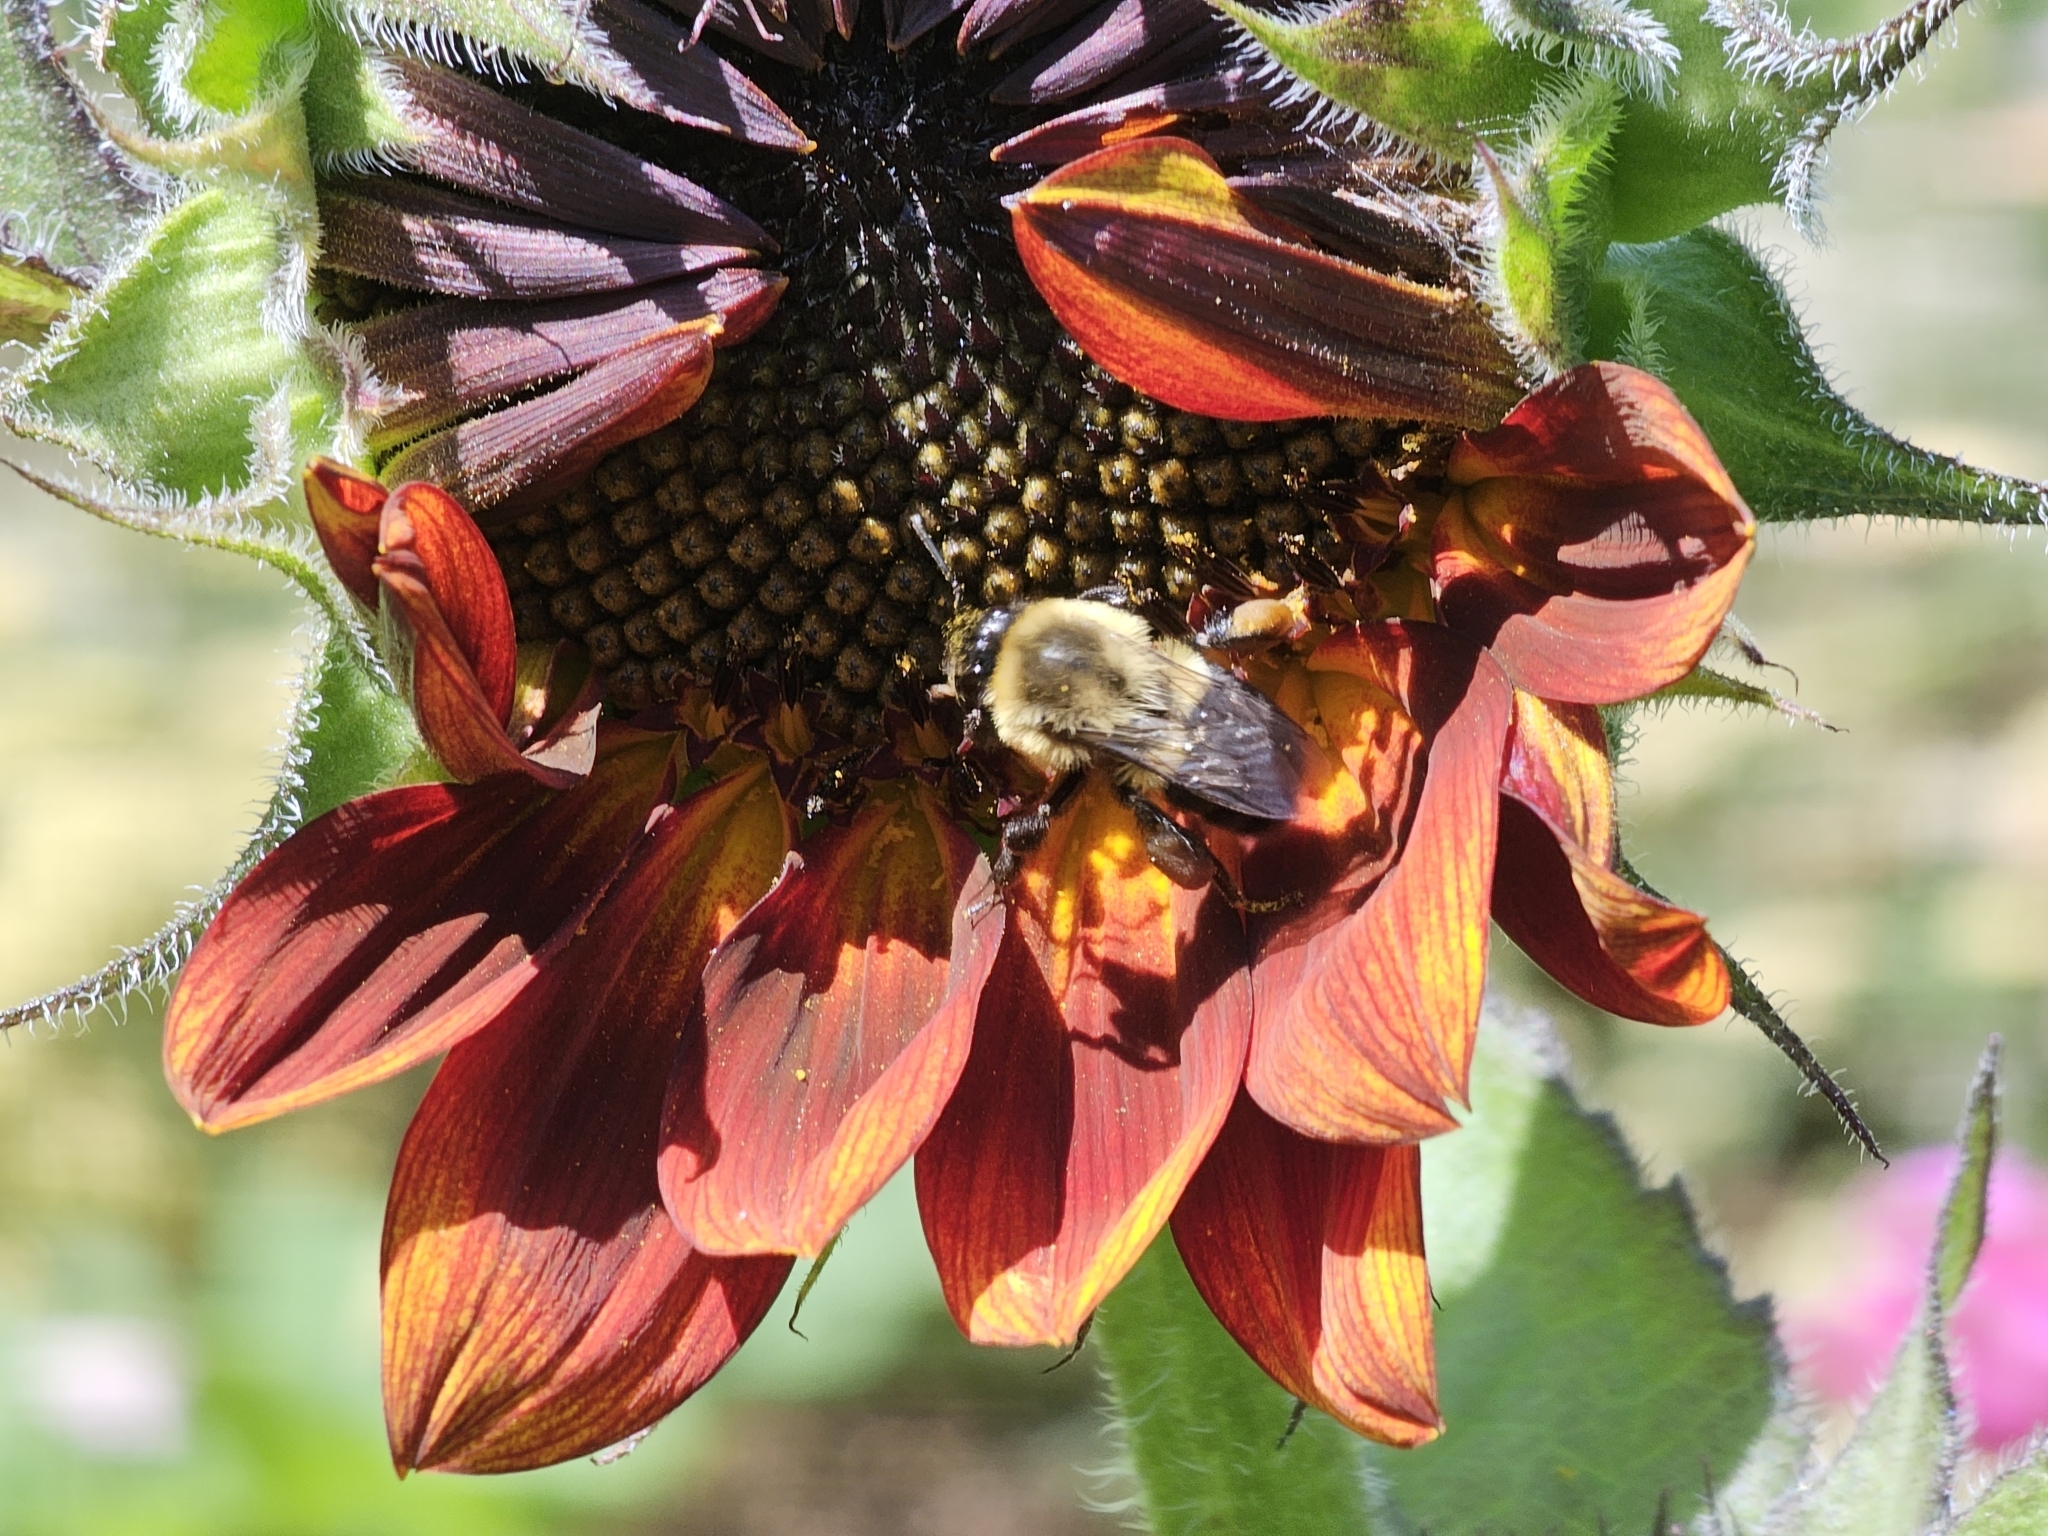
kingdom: Animalia
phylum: Arthropoda
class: Insecta
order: Hymenoptera
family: Apidae
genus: Bombus
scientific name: Bombus impatiens
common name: Common eastern bumble bee
